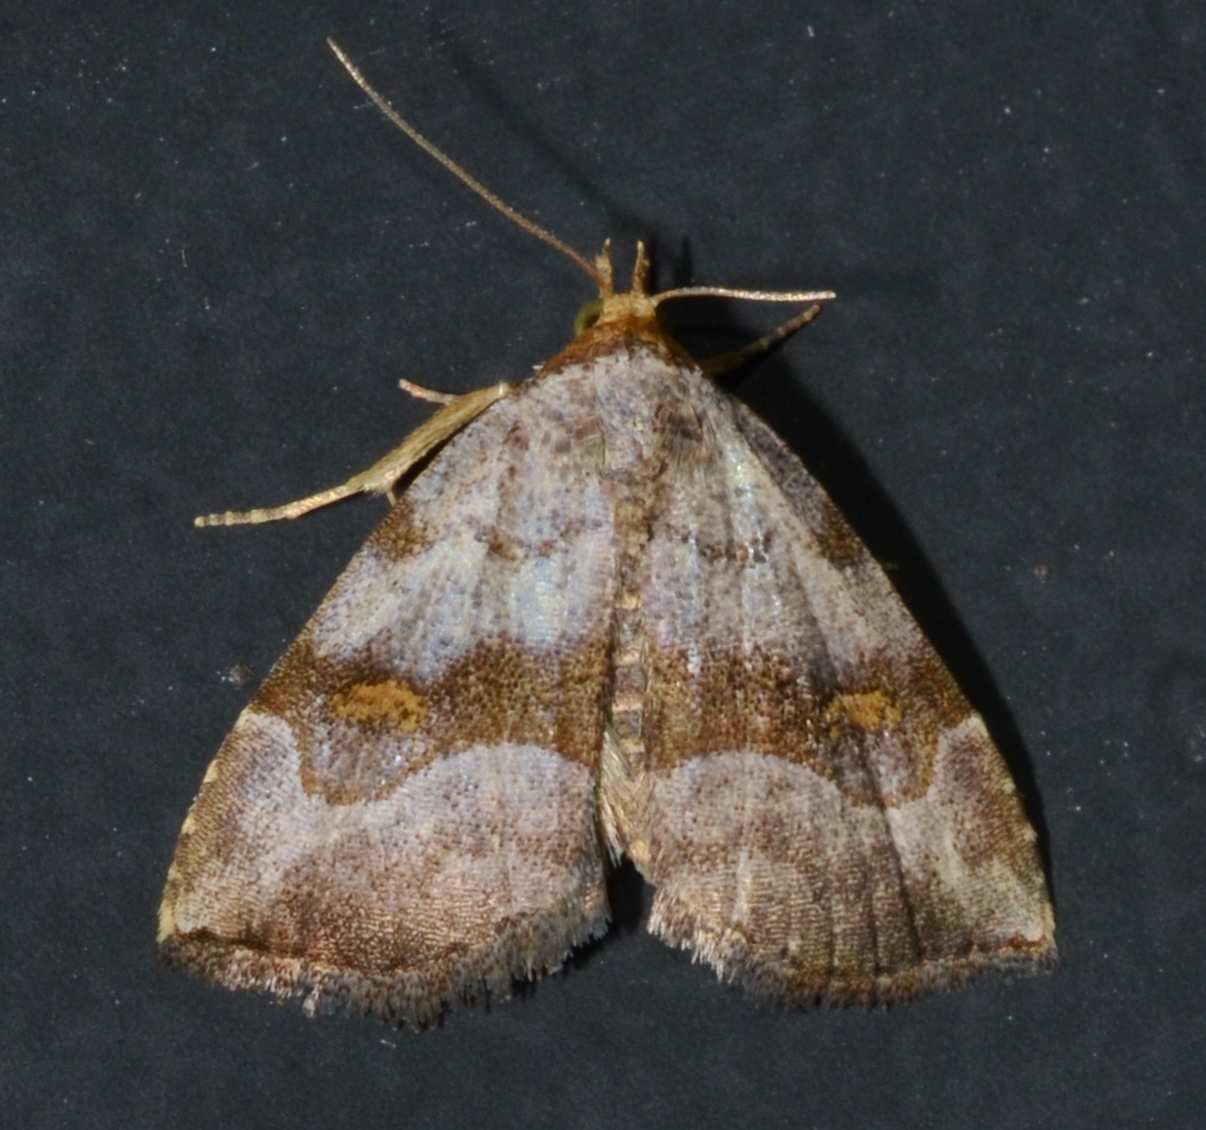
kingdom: Animalia
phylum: Arthropoda
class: Insecta
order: Lepidoptera
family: Erebidae
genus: Oxycilla
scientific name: Oxycilla malaca
